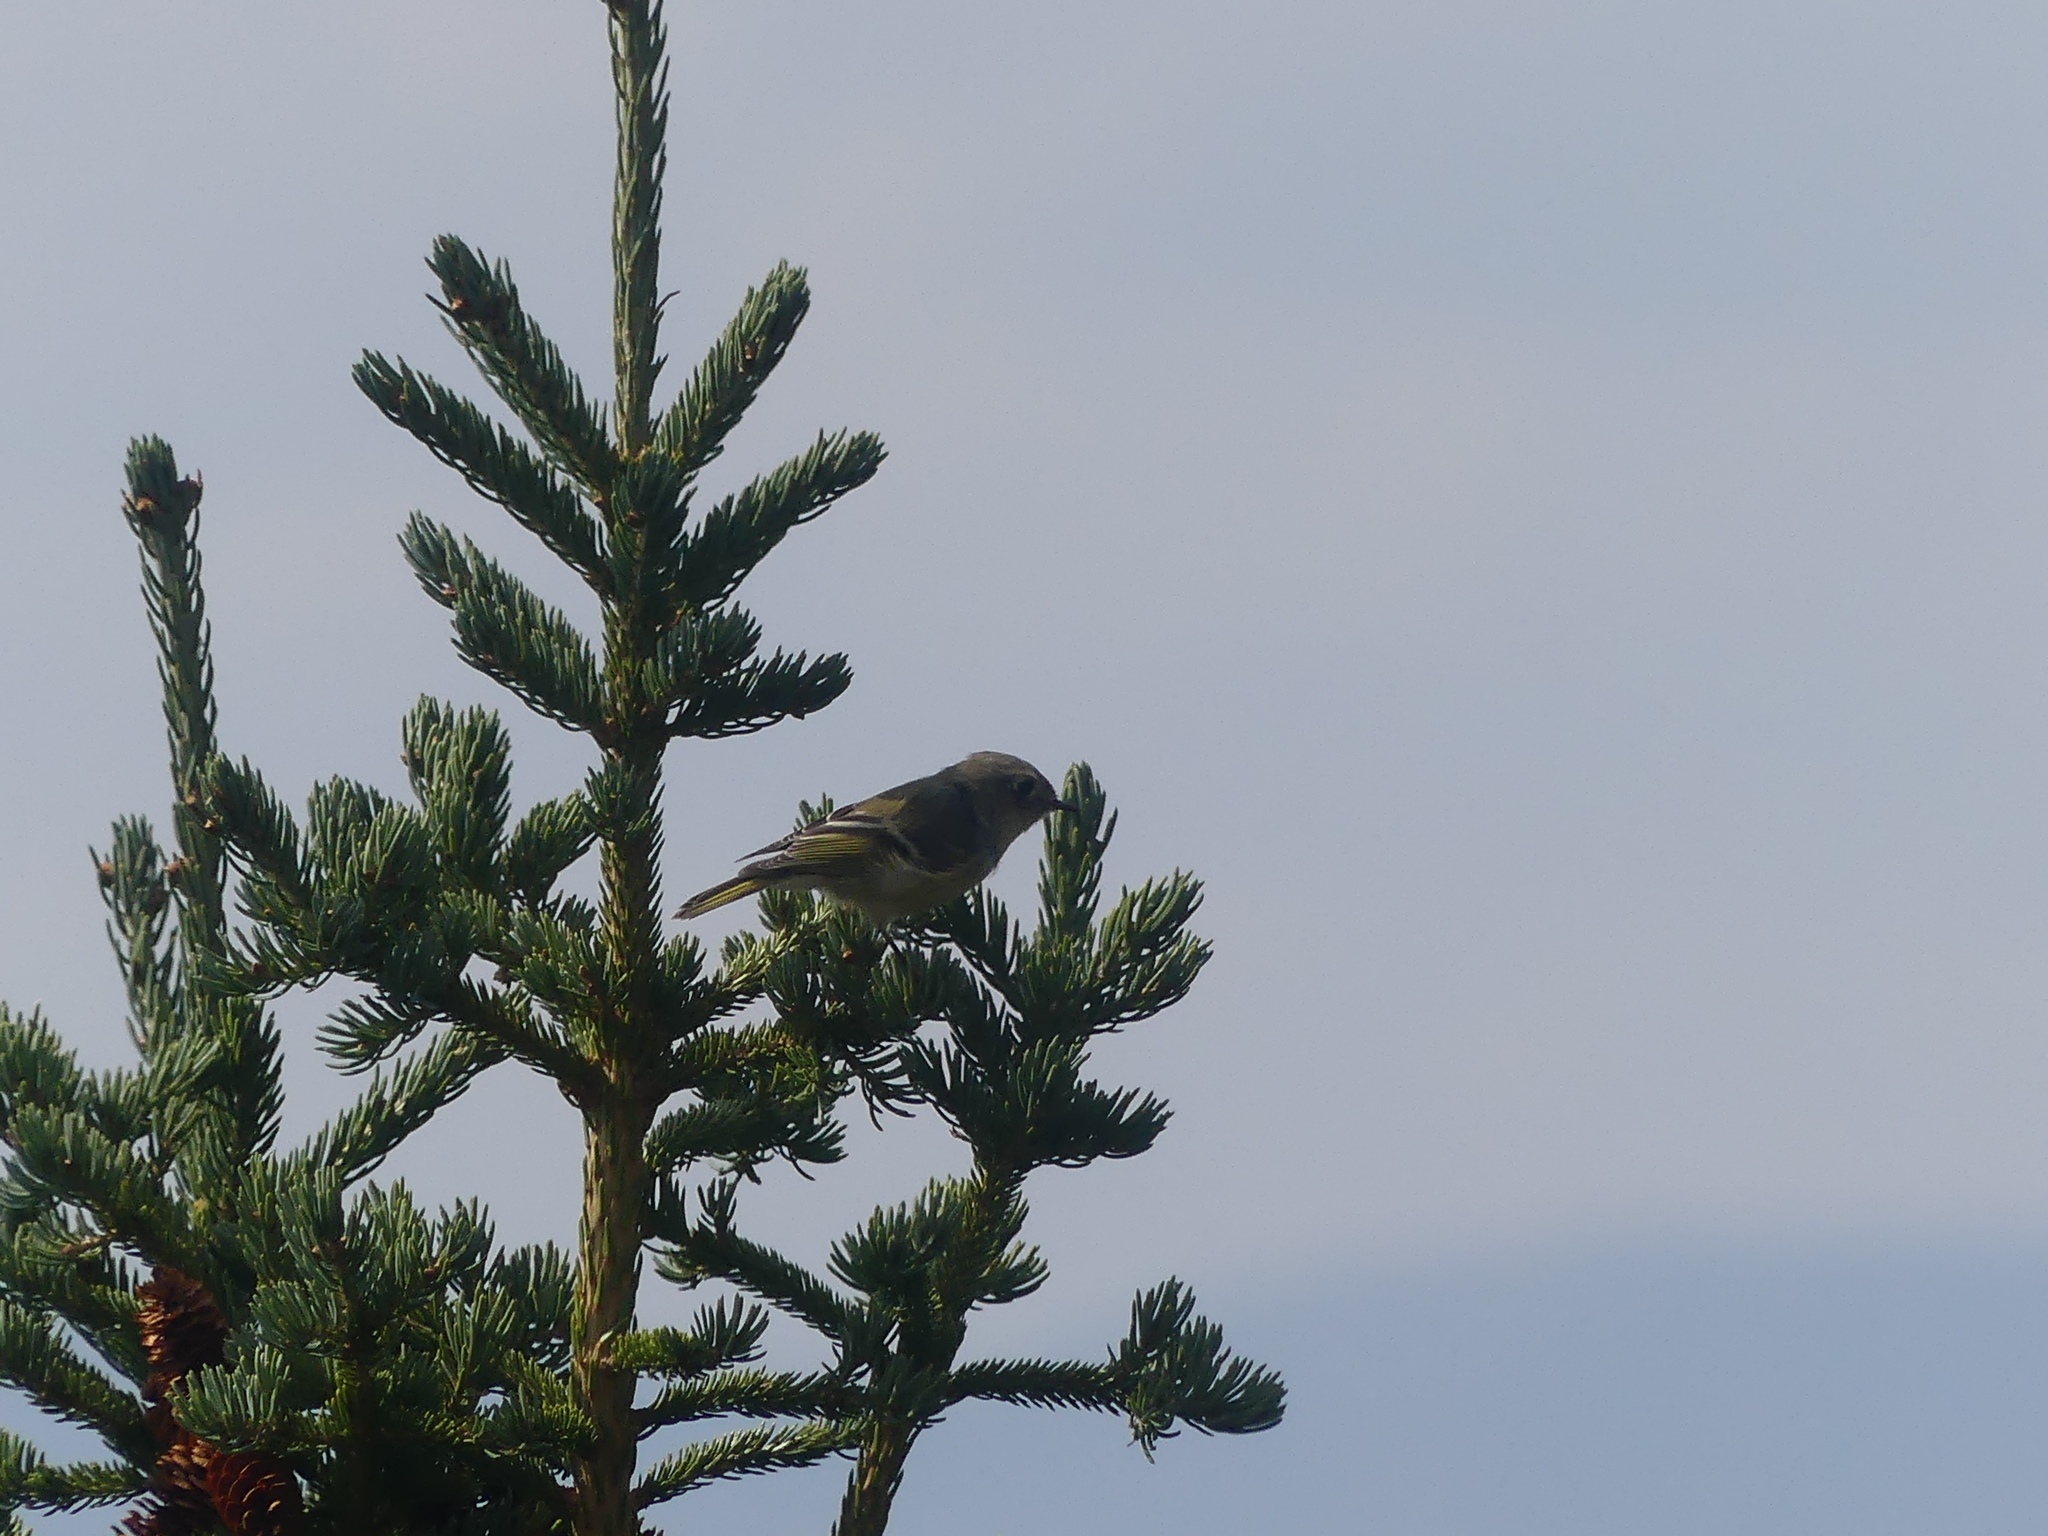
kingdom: Animalia
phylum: Chordata
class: Aves
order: Passeriformes
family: Regulidae
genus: Regulus
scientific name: Regulus calendula
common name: Ruby-crowned kinglet
